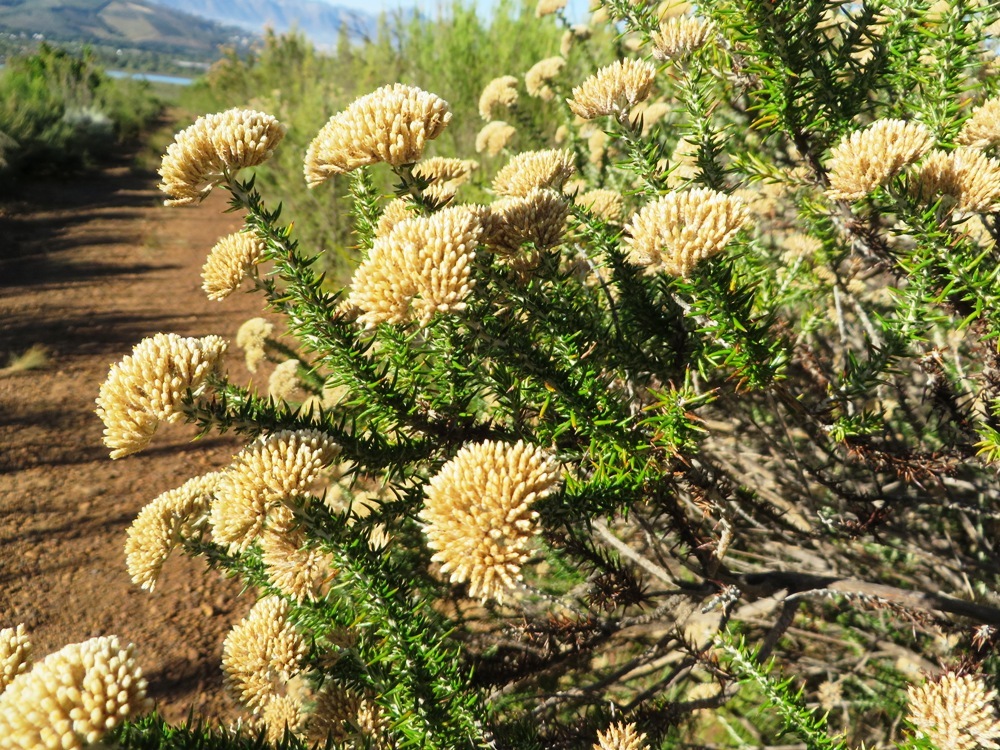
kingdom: Plantae
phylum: Tracheophyta
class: Magnoliopsida
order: Asterales
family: Asteraceae
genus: Metalasia
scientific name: Metalasia densa
